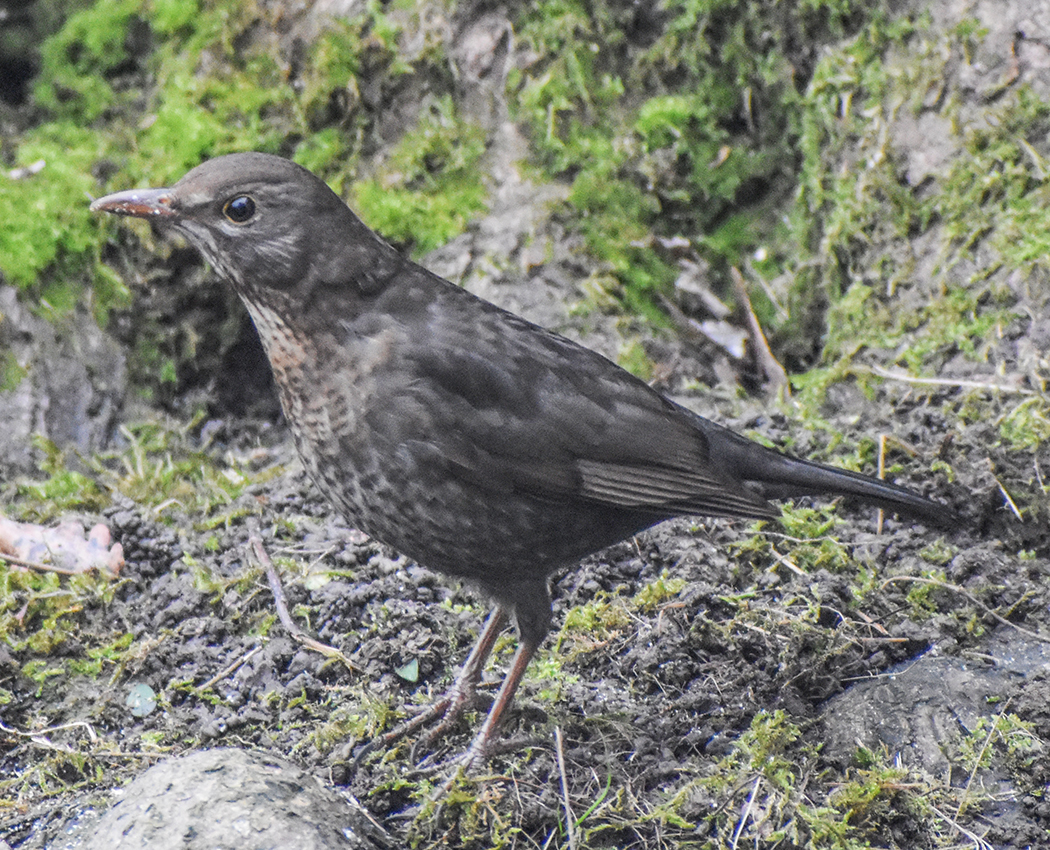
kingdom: Animalia
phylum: Chordata
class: Aves
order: Passeriformes
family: Turdidae
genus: Turdus
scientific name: Turdus merula
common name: Common blackbird
